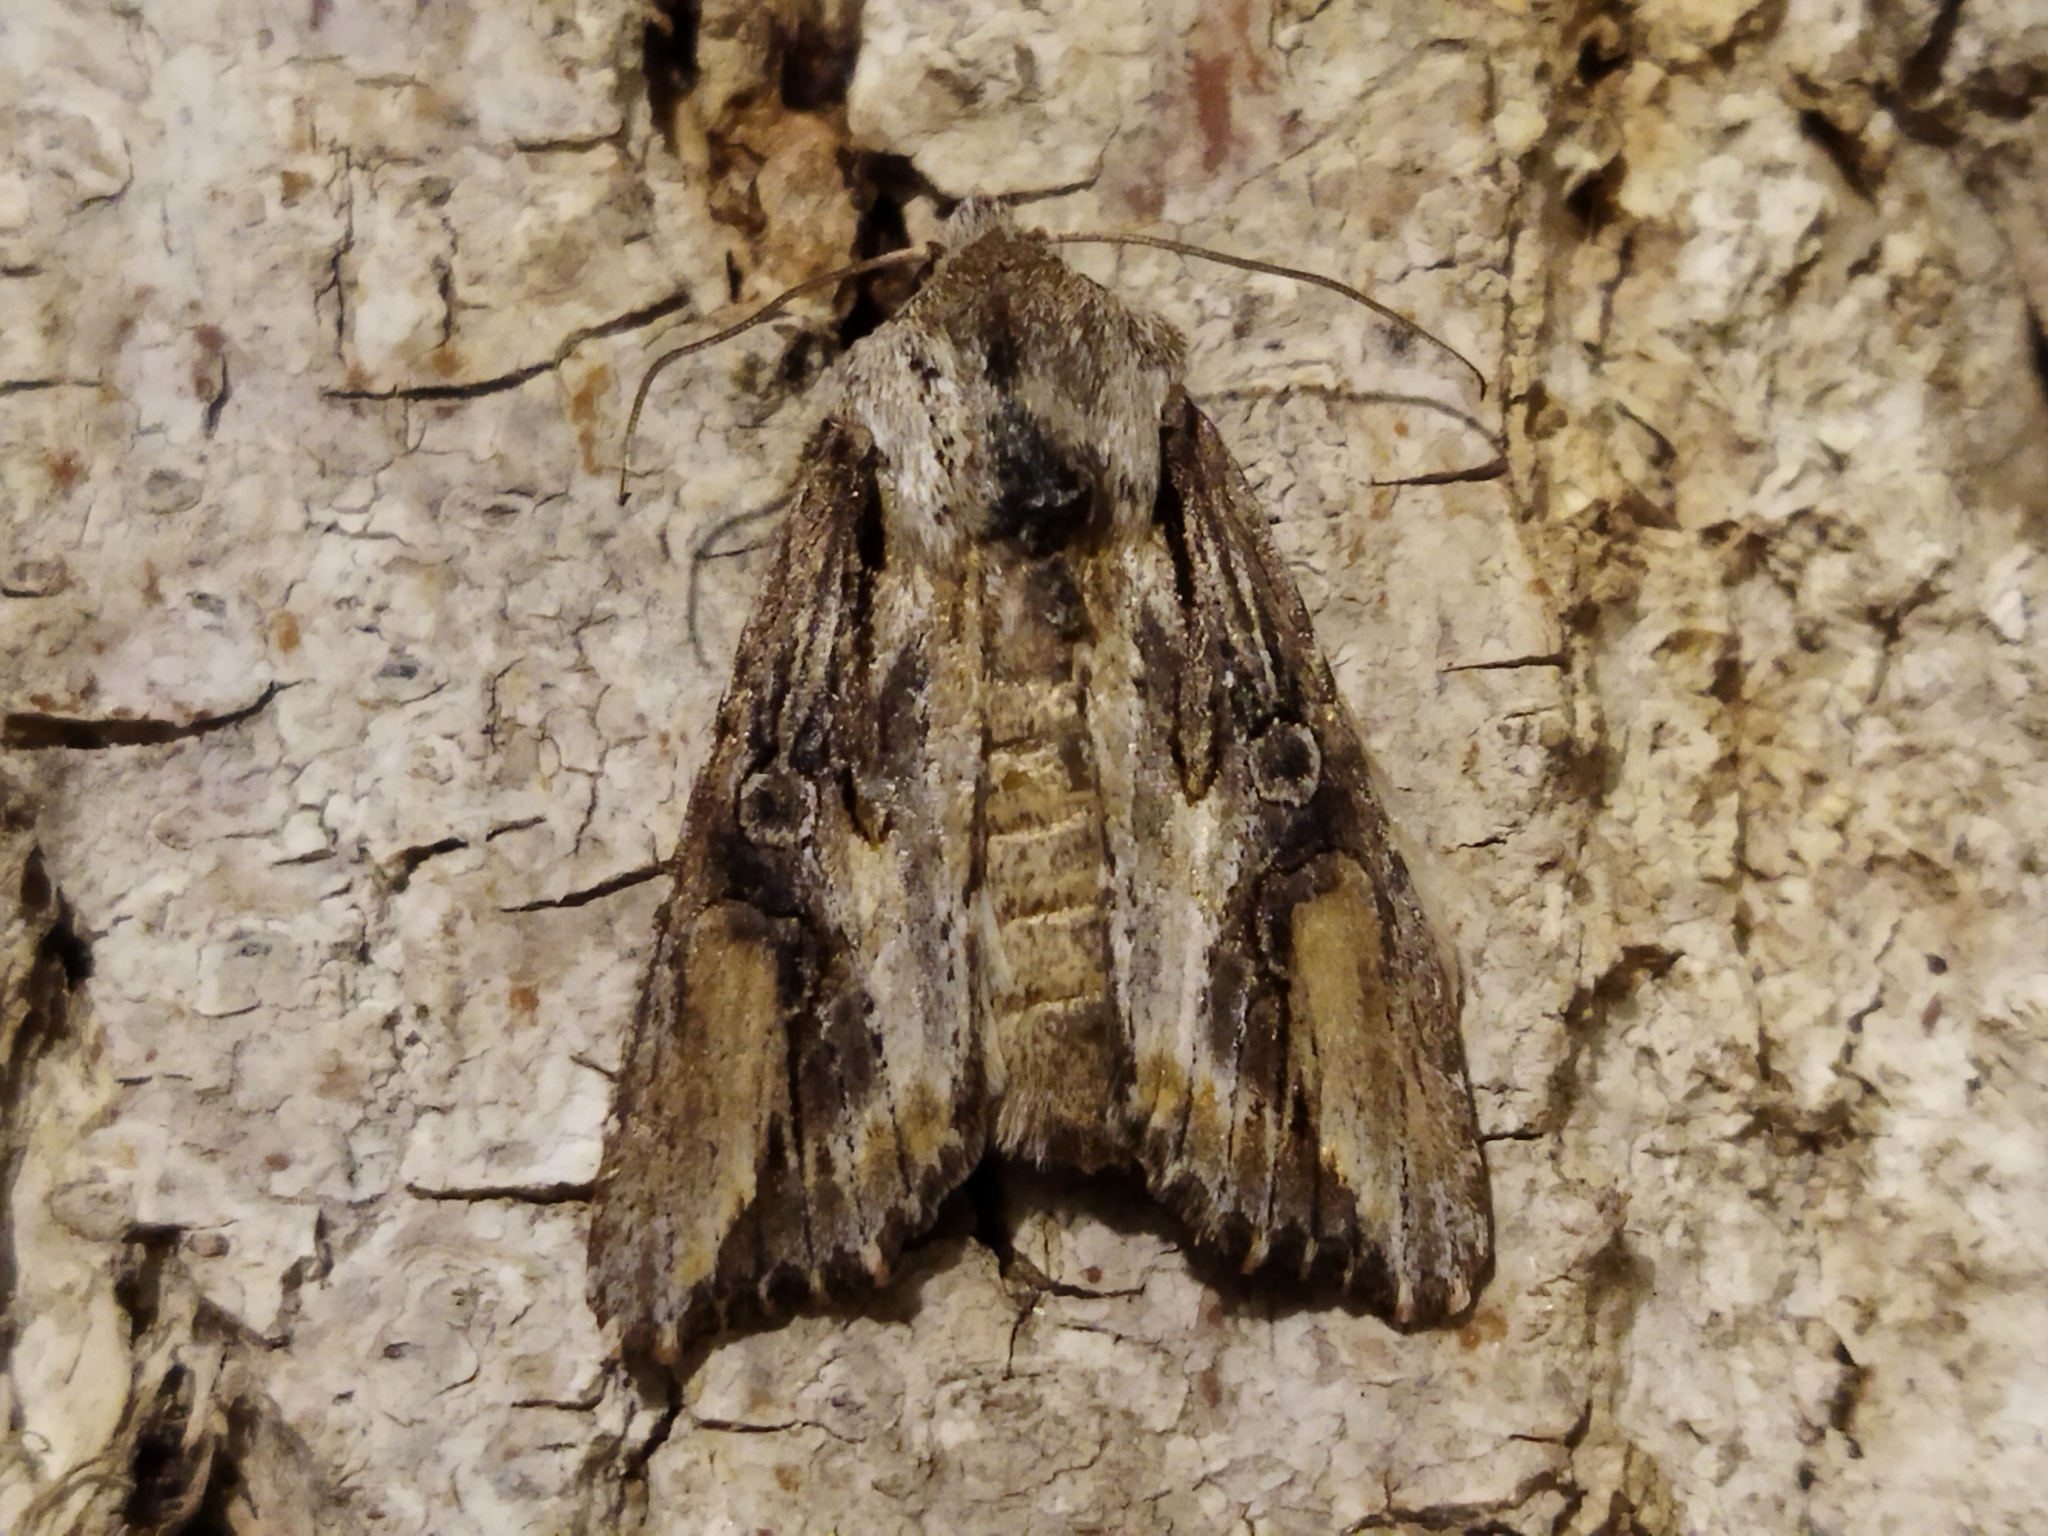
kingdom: Animalia
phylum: Arthropoda
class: Insecta
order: Lepidoptera
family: Noctuidae
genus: Egira
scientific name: Egira
